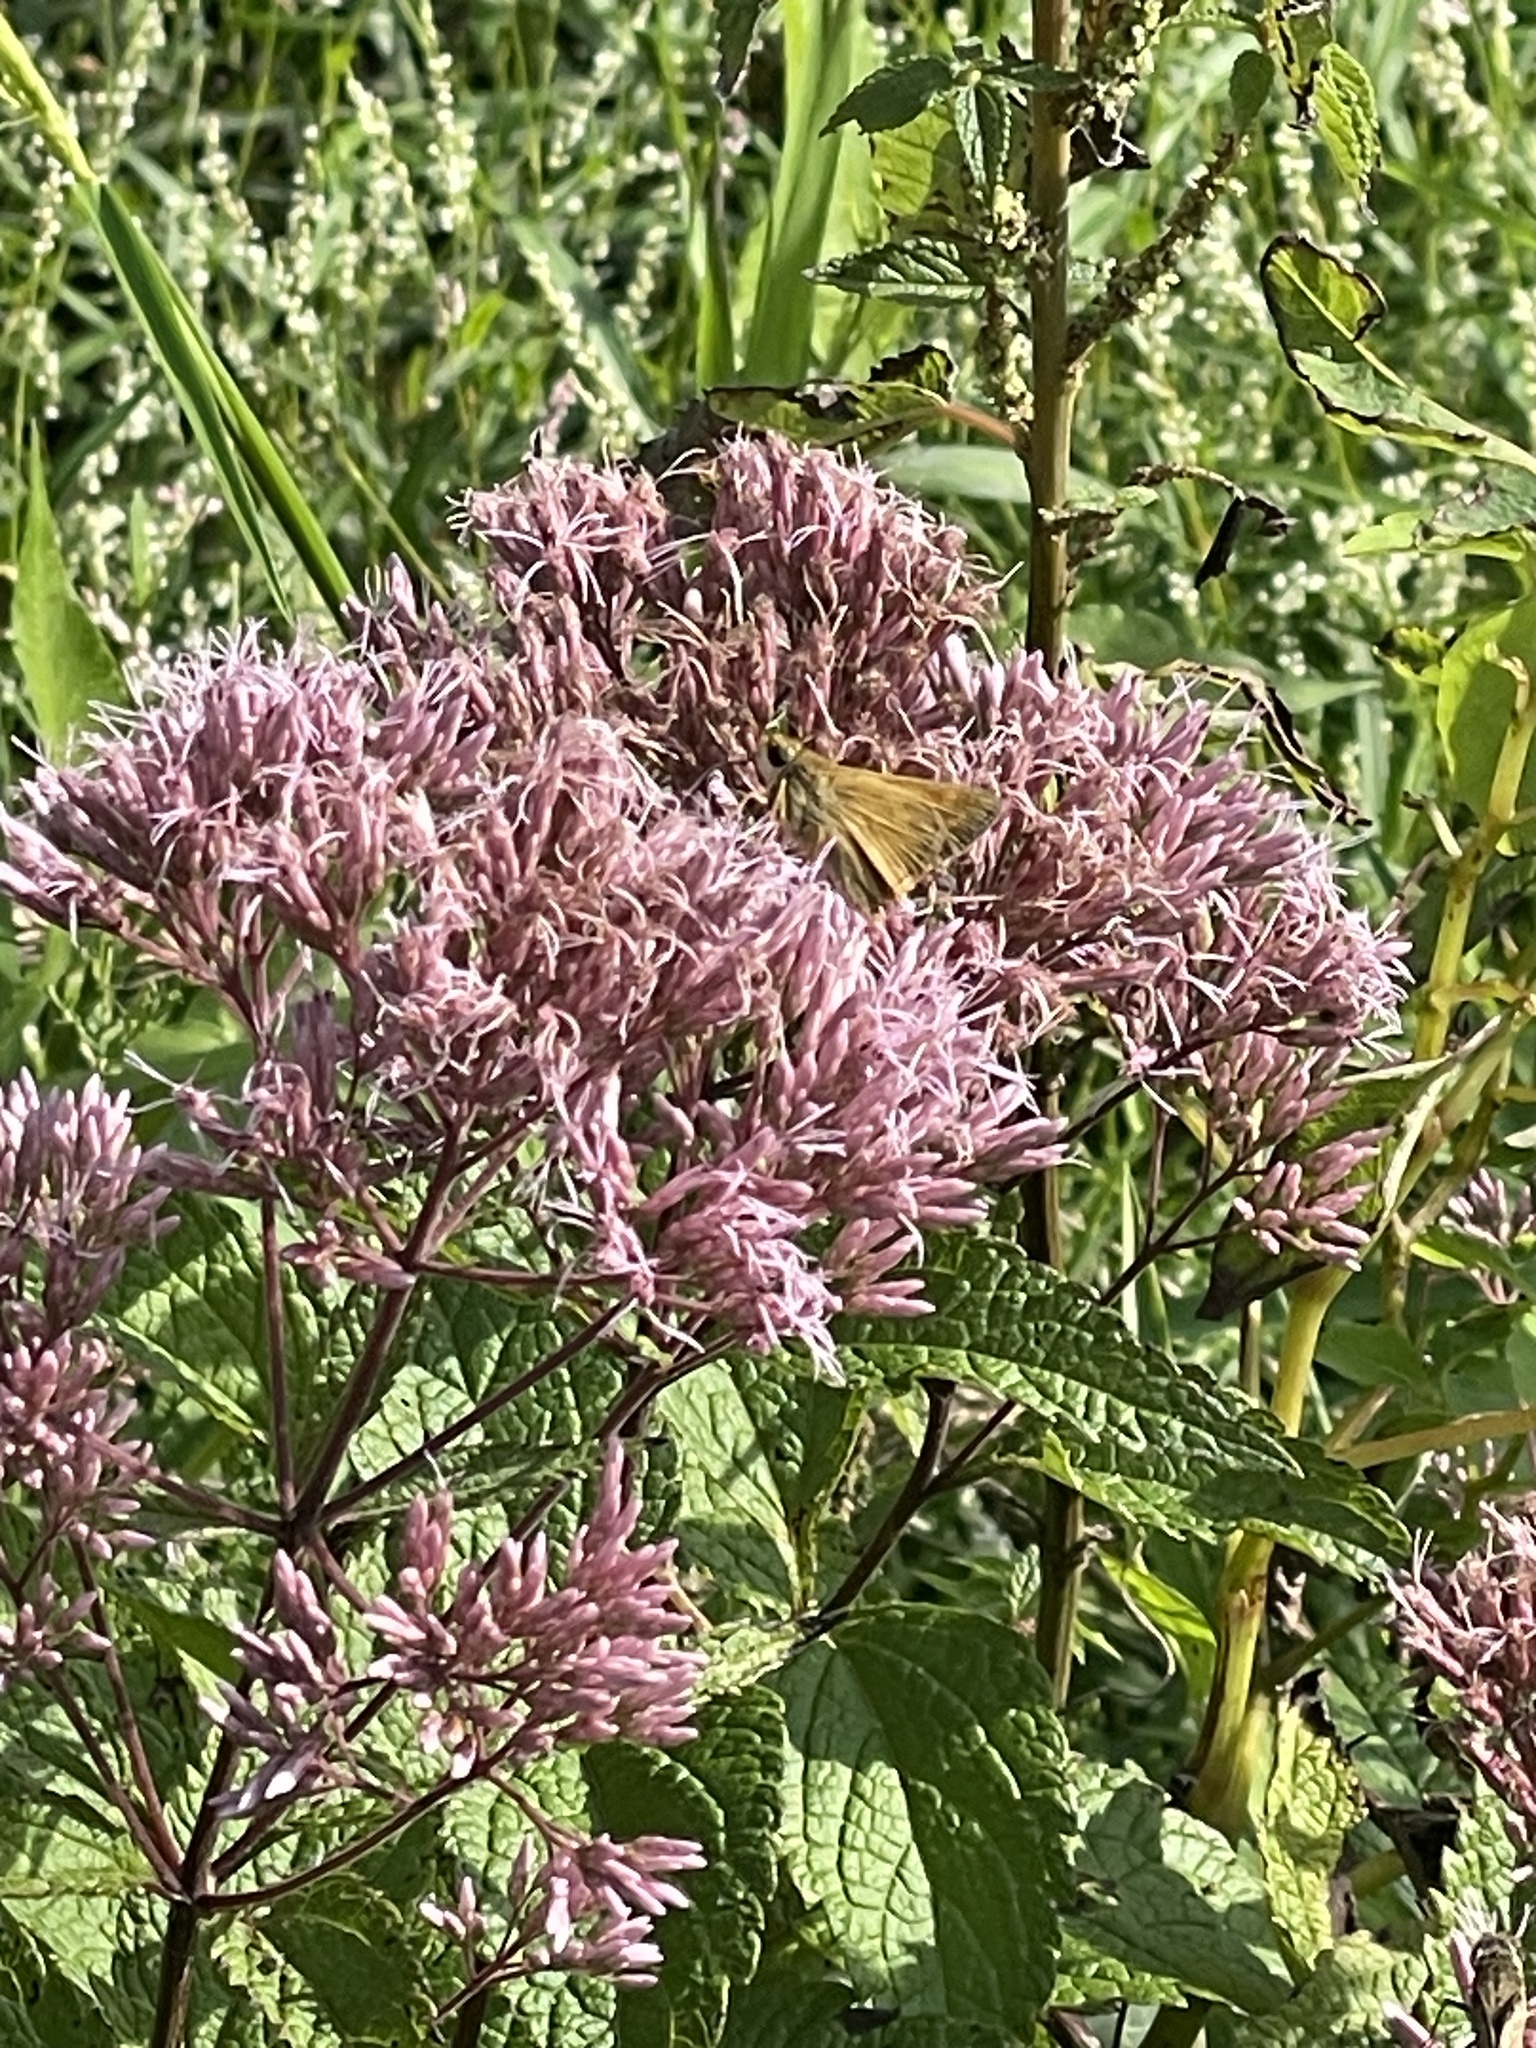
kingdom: Animalia
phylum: Arthropoda
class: Insecta
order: Lepidoptera
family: Hesperiidae
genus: Atalopedes
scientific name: Atalopedes
